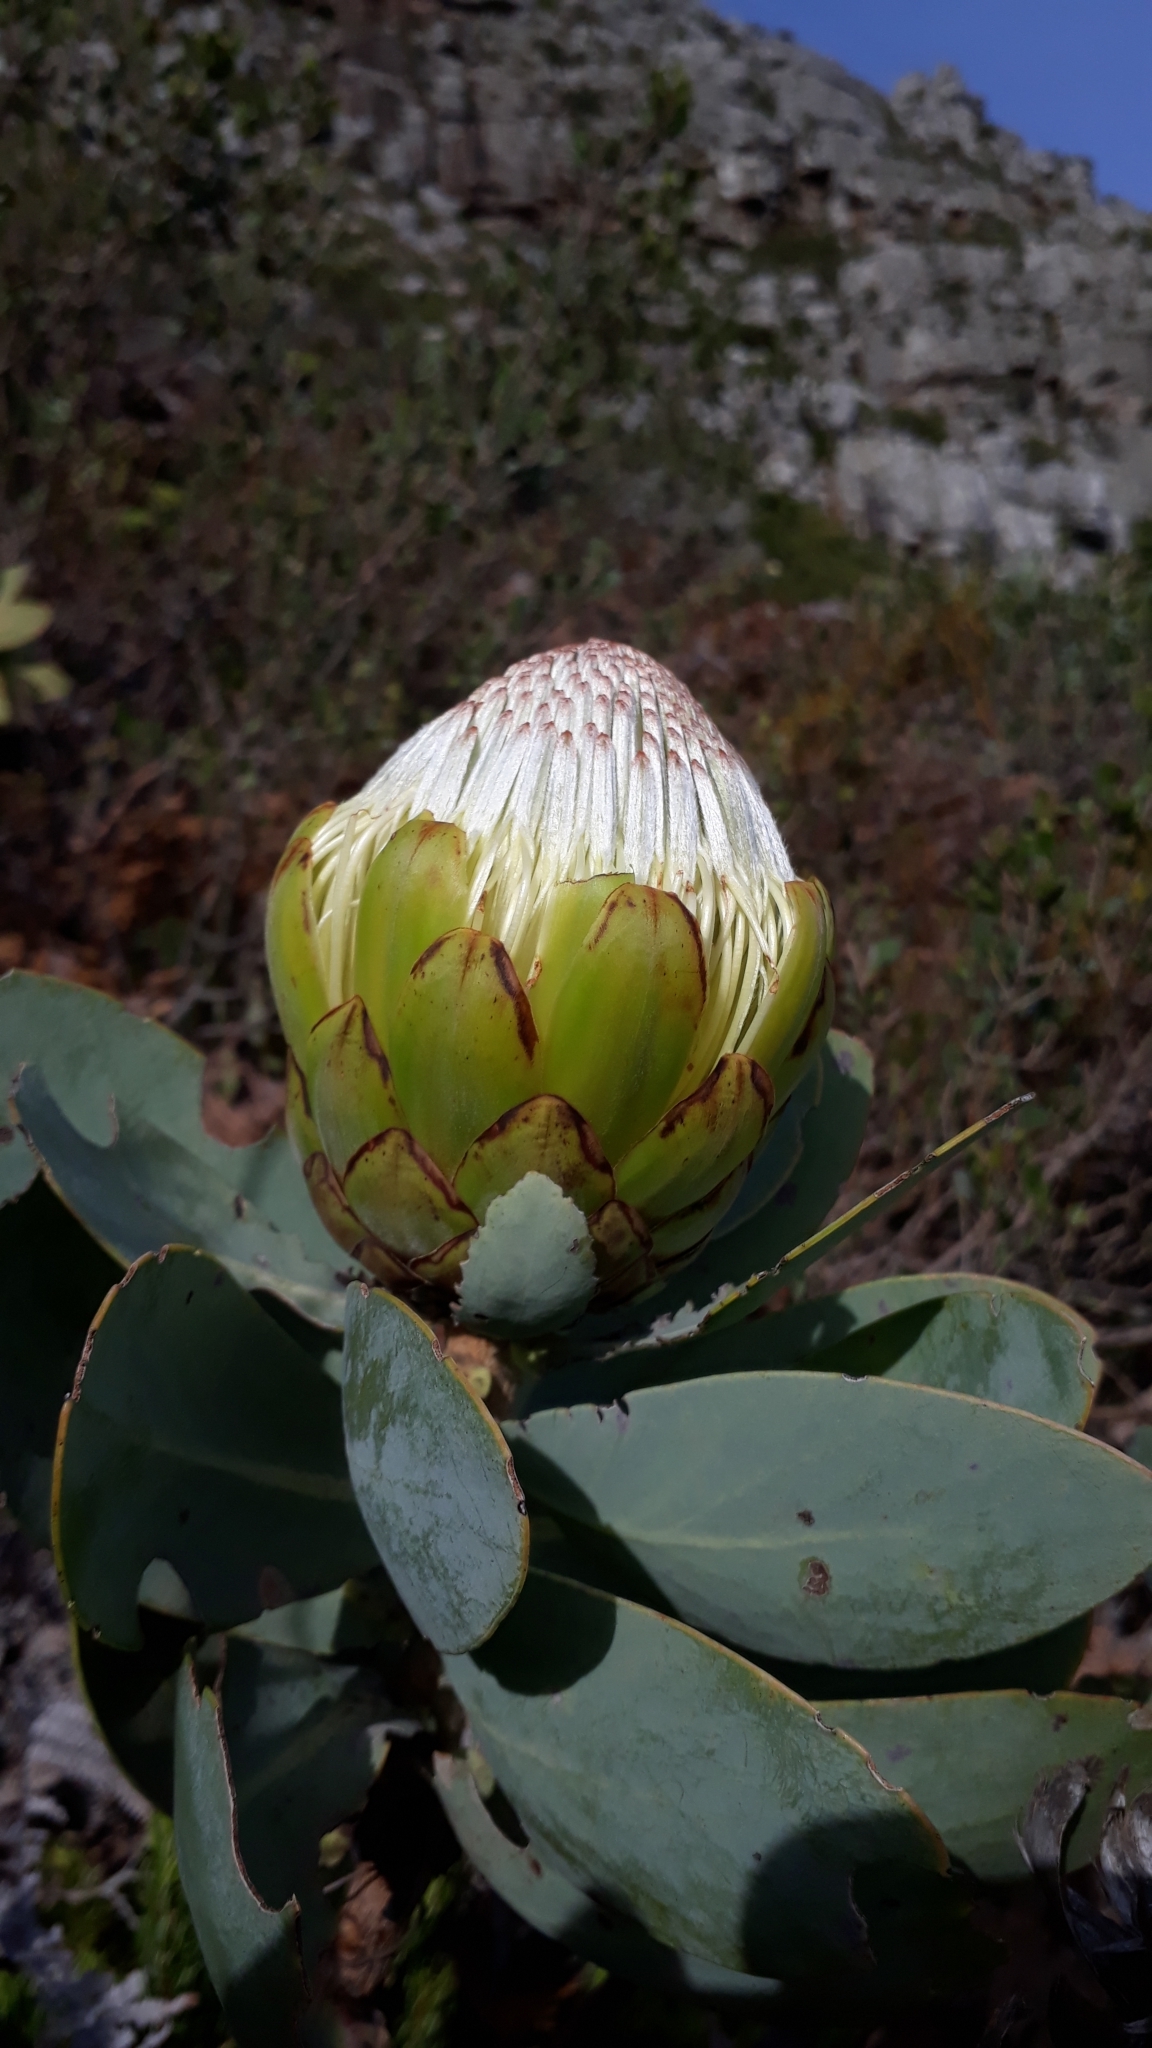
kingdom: Plantae
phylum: Tracheophyta
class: Magnoliopsida
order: Proteales
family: Proteaceae
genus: Protea
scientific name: Protea nitida
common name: Tree protea
